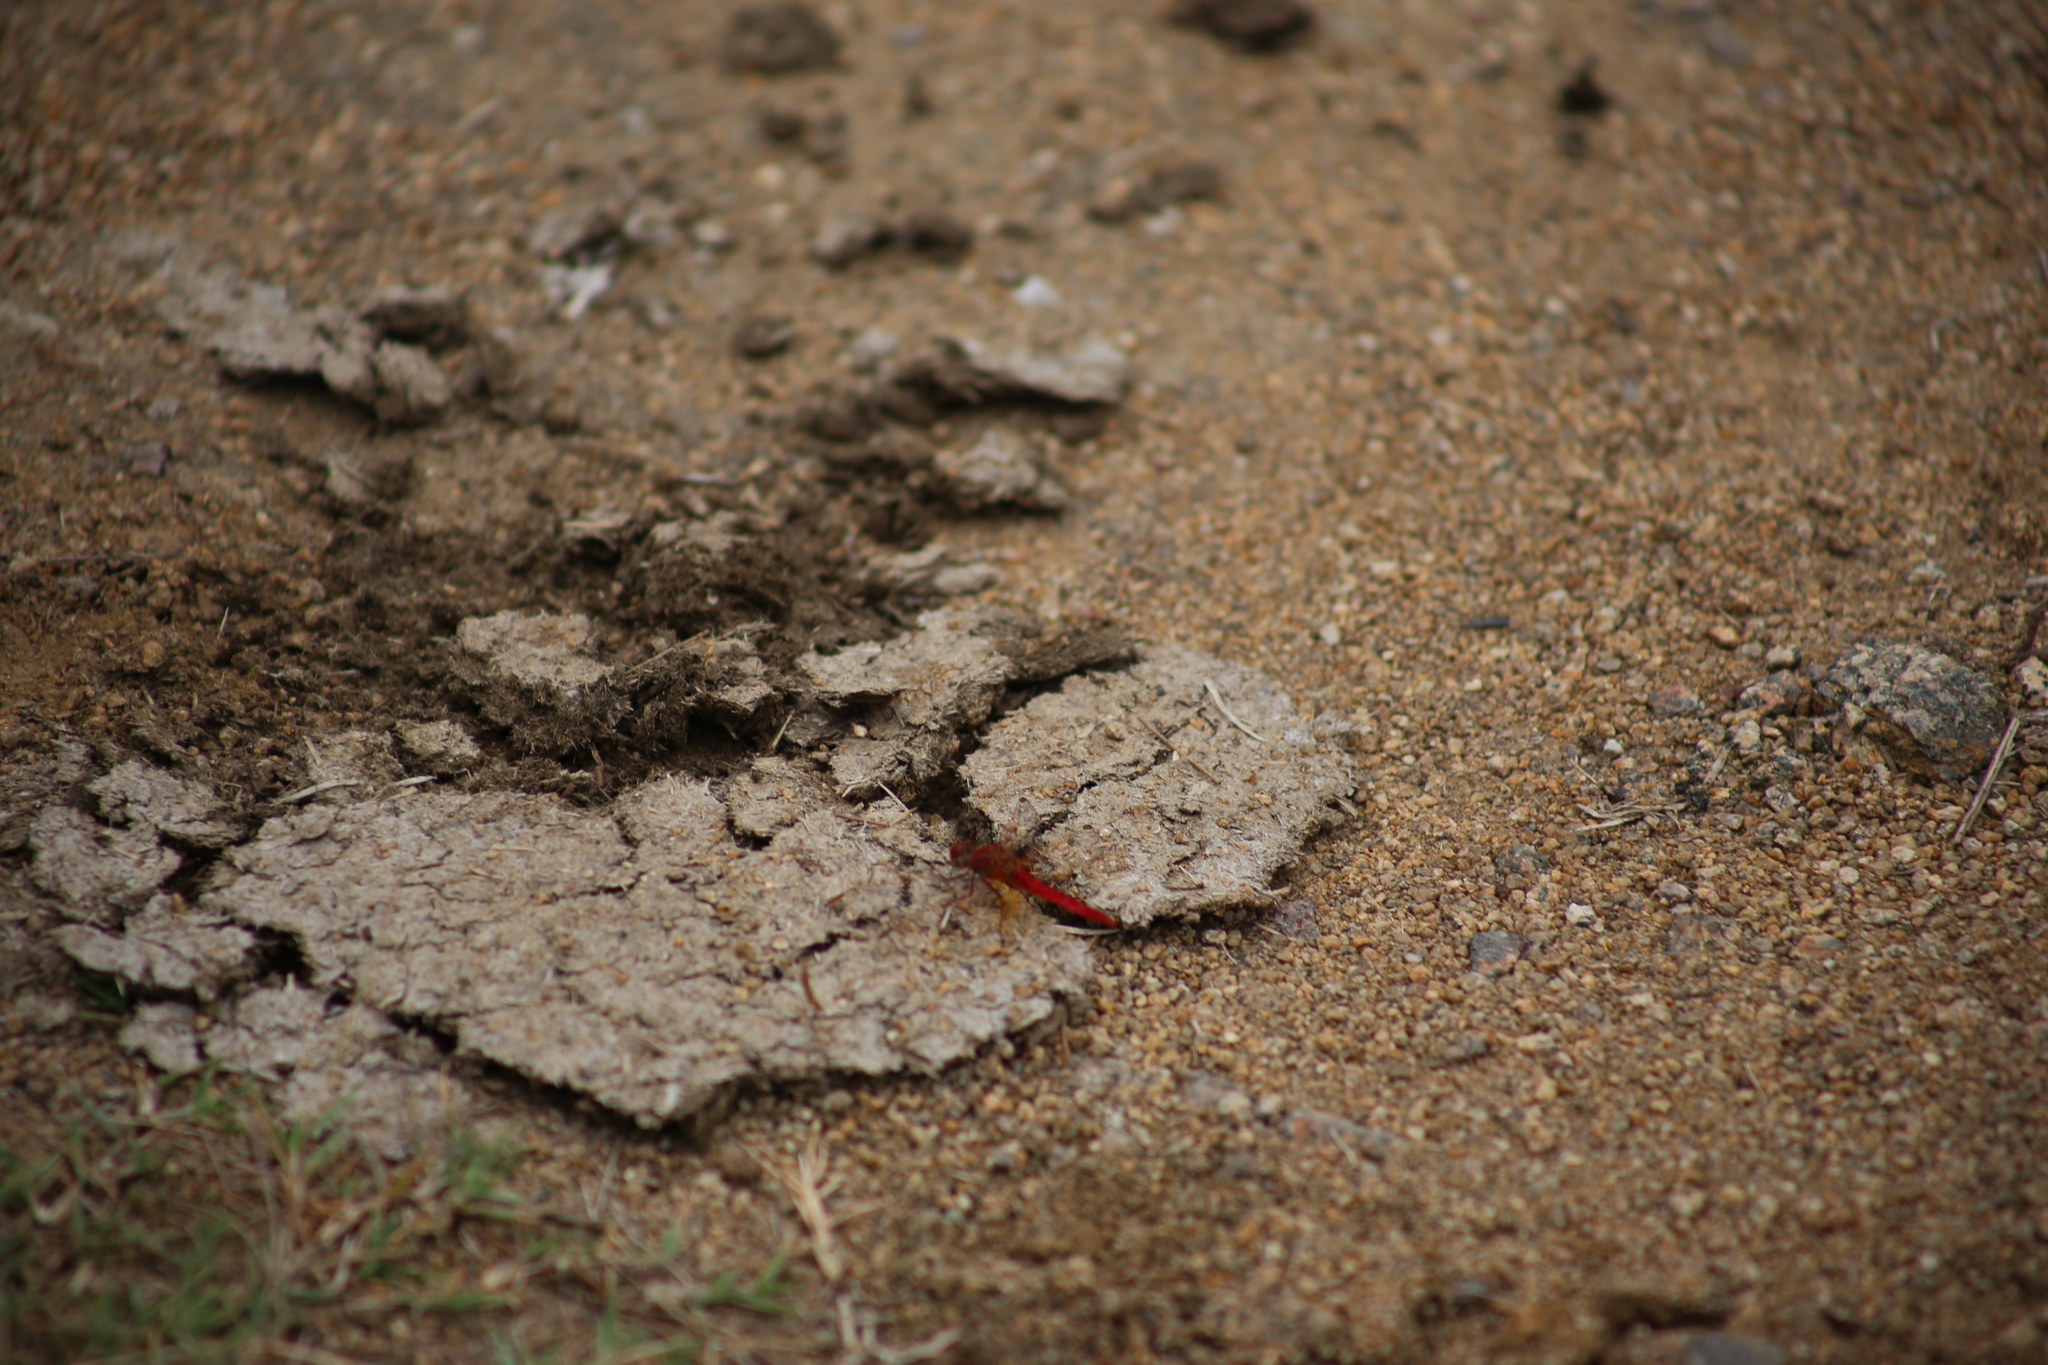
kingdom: Animalia
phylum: Arthropoda
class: Insecta
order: Odonata
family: Libellulidae
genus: Diplacodes
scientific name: Diplacodes haematodes
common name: Scarlet percher
